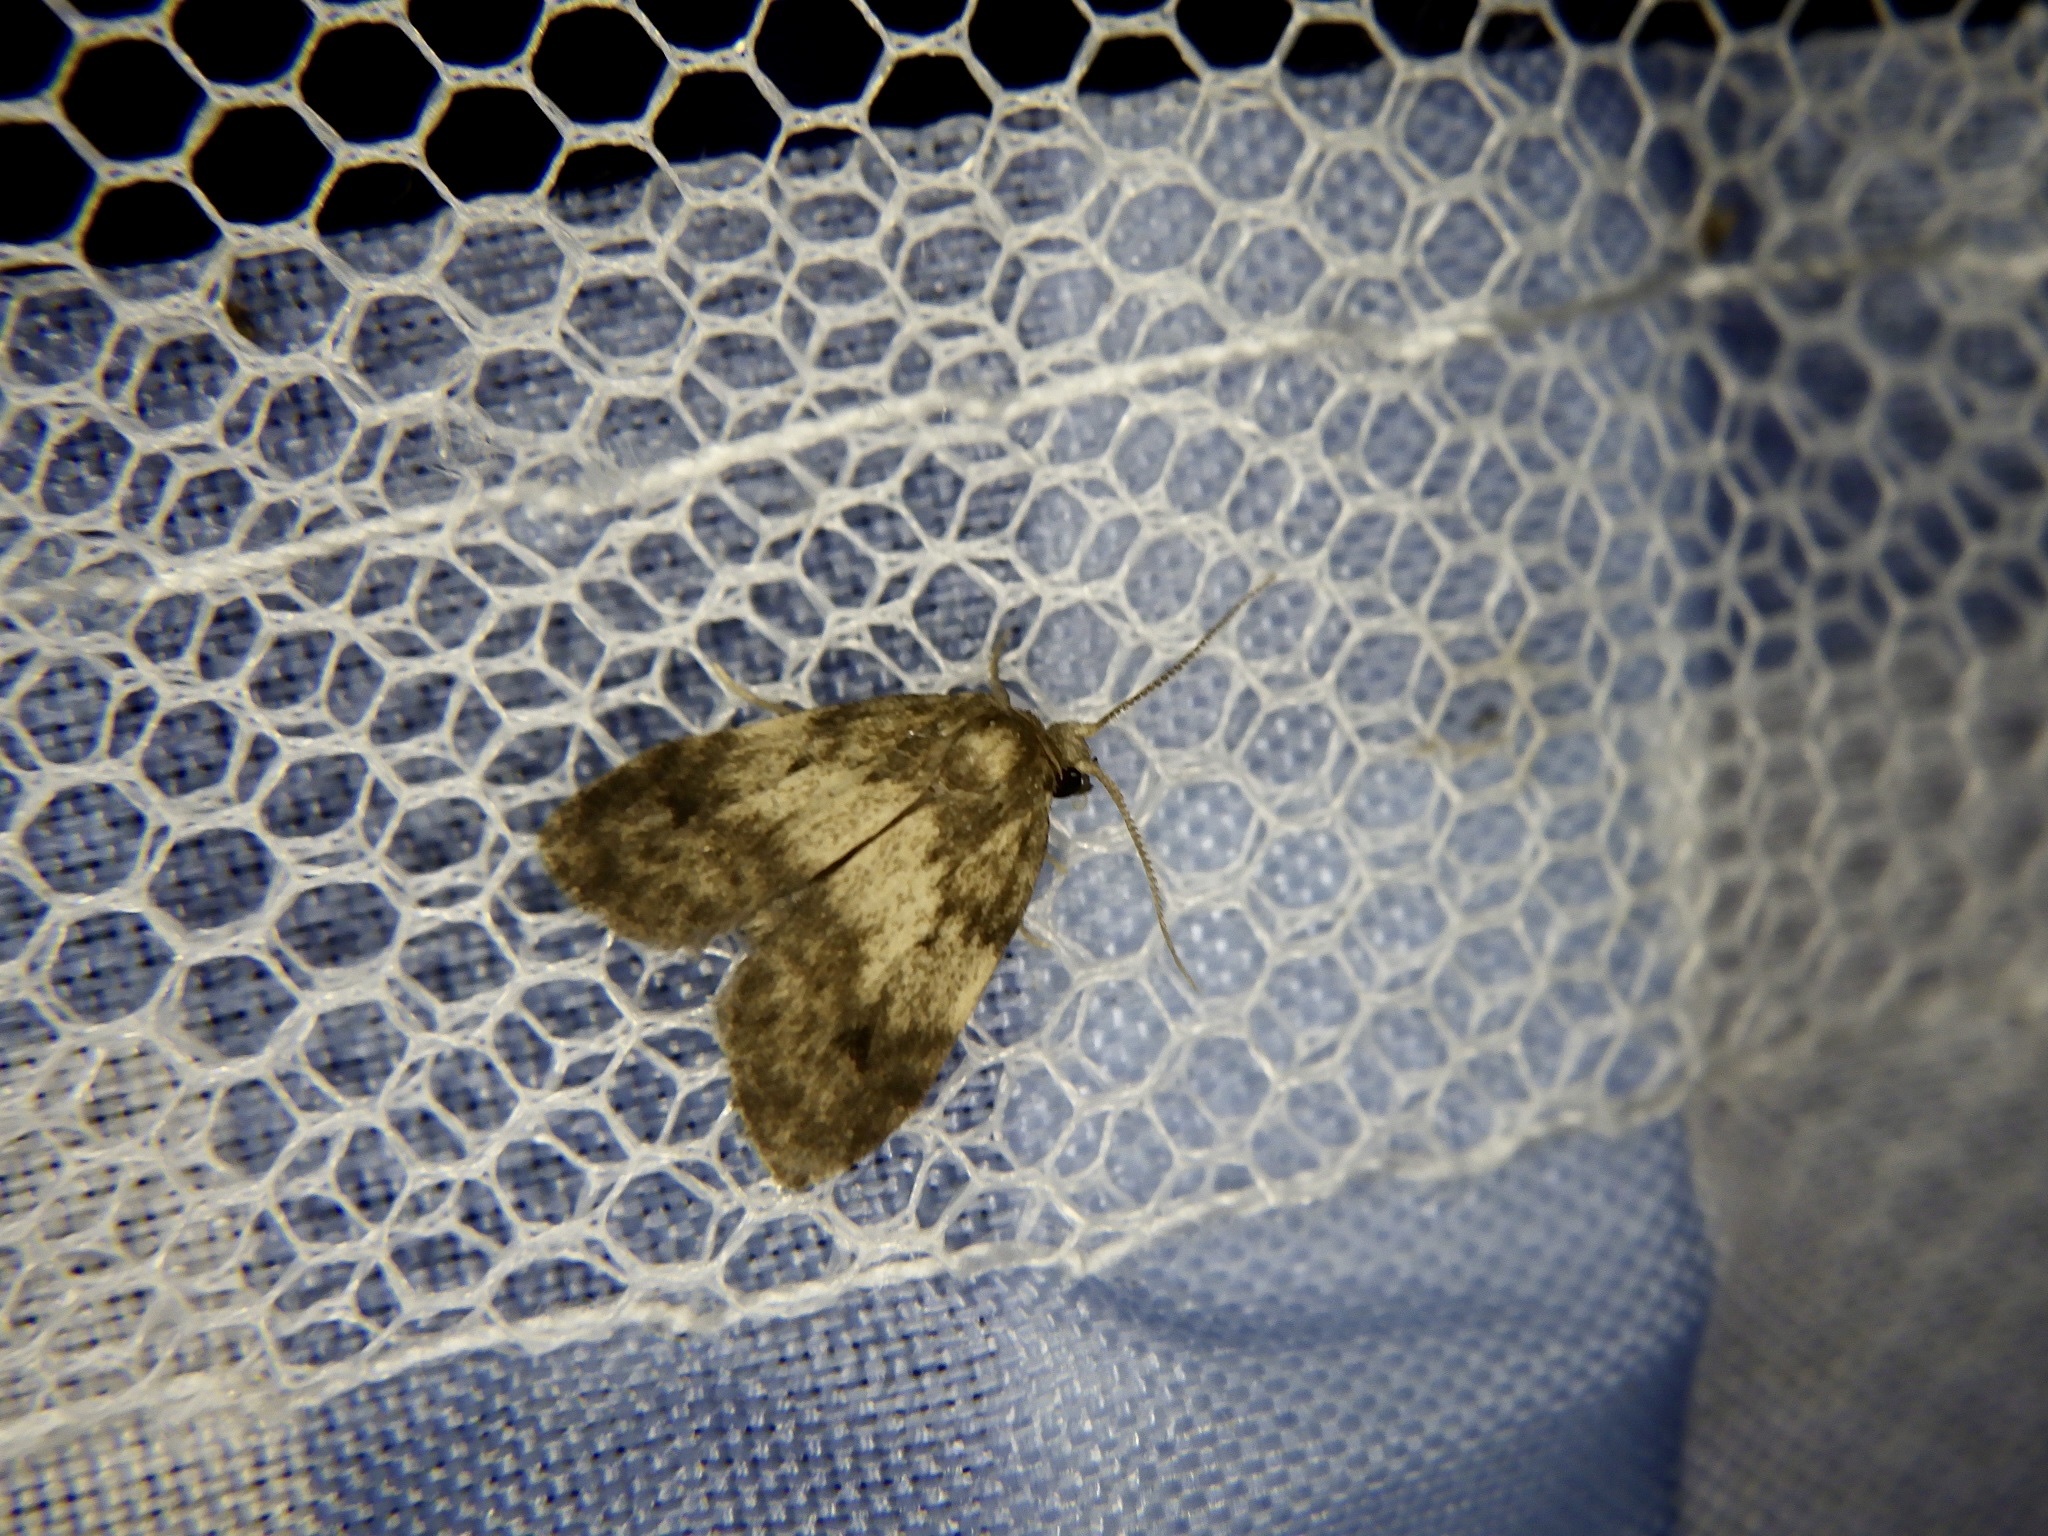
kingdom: Animalia
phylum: Arthropoda
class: Insecta
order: Lepidoptera
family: Erebidae
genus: Siccia
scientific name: Siccia minuta
